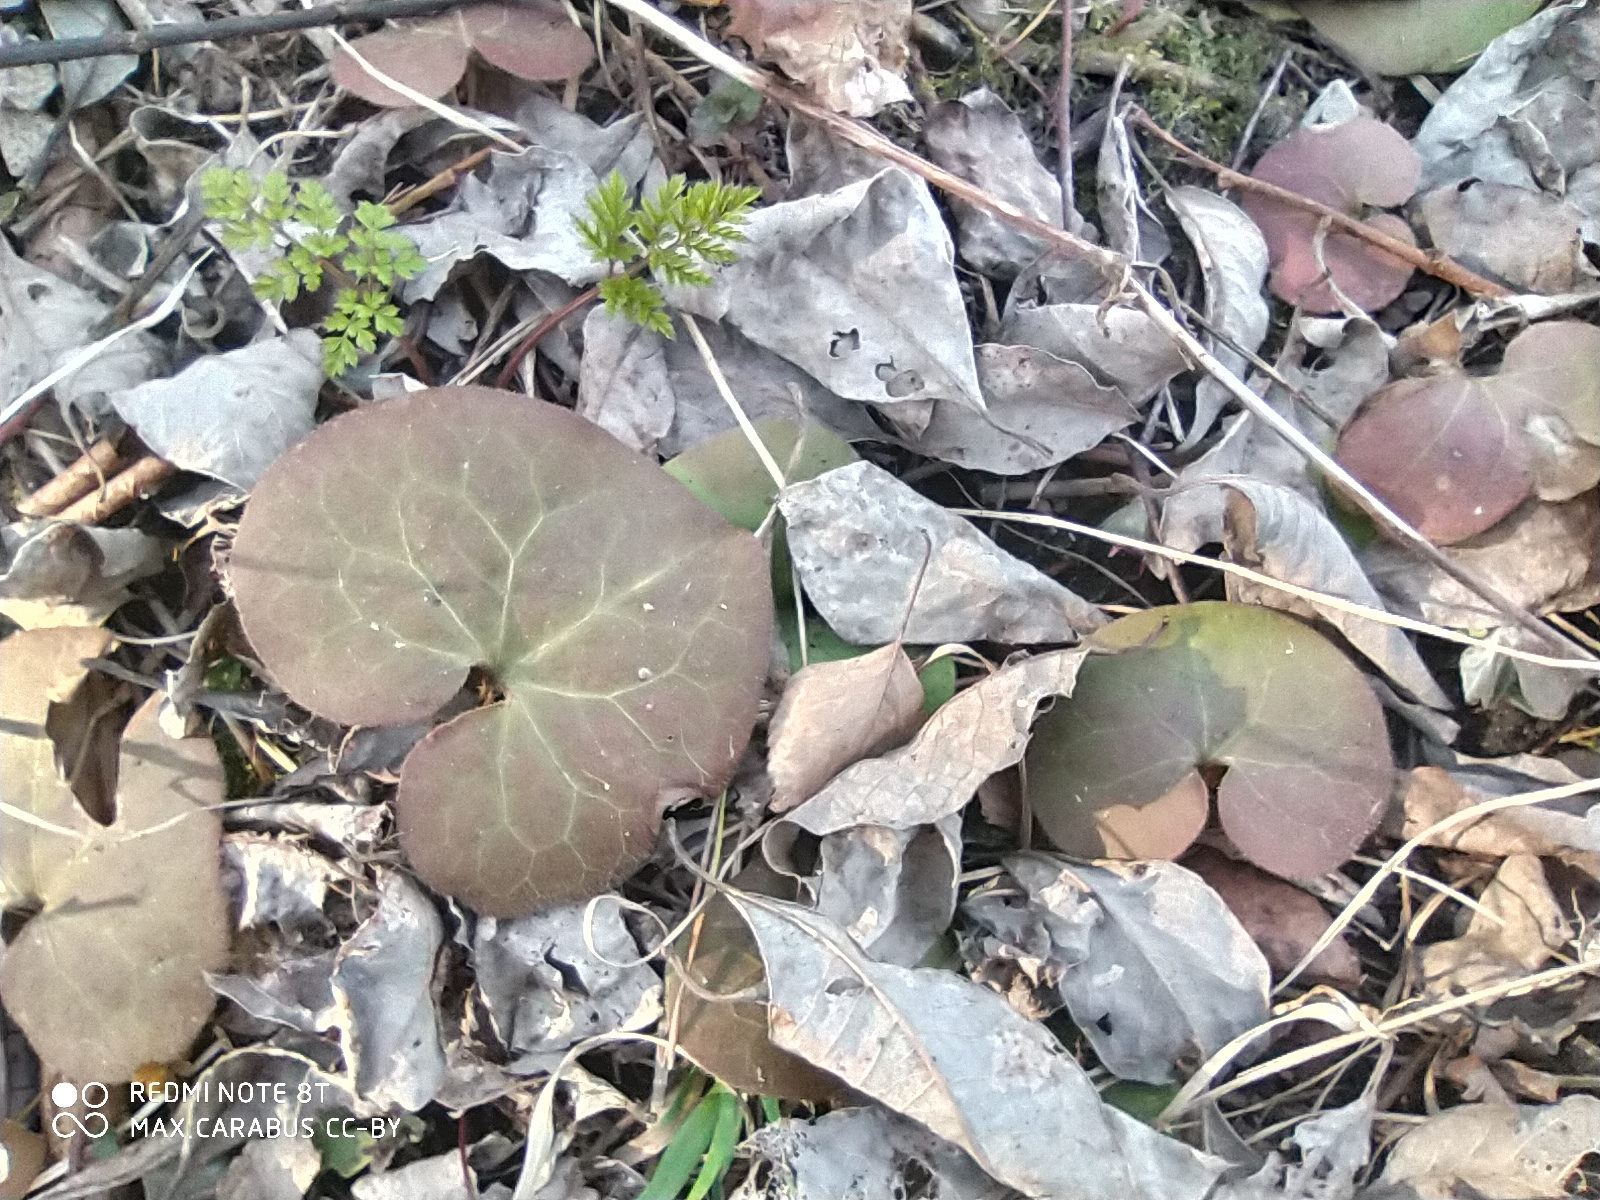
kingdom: Plantae
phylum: Tracheophyta
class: Magnoliopsida
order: Piperales
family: Aristolochiaceae
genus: Asarum
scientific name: Asarum europaeum
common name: Asarabacca
